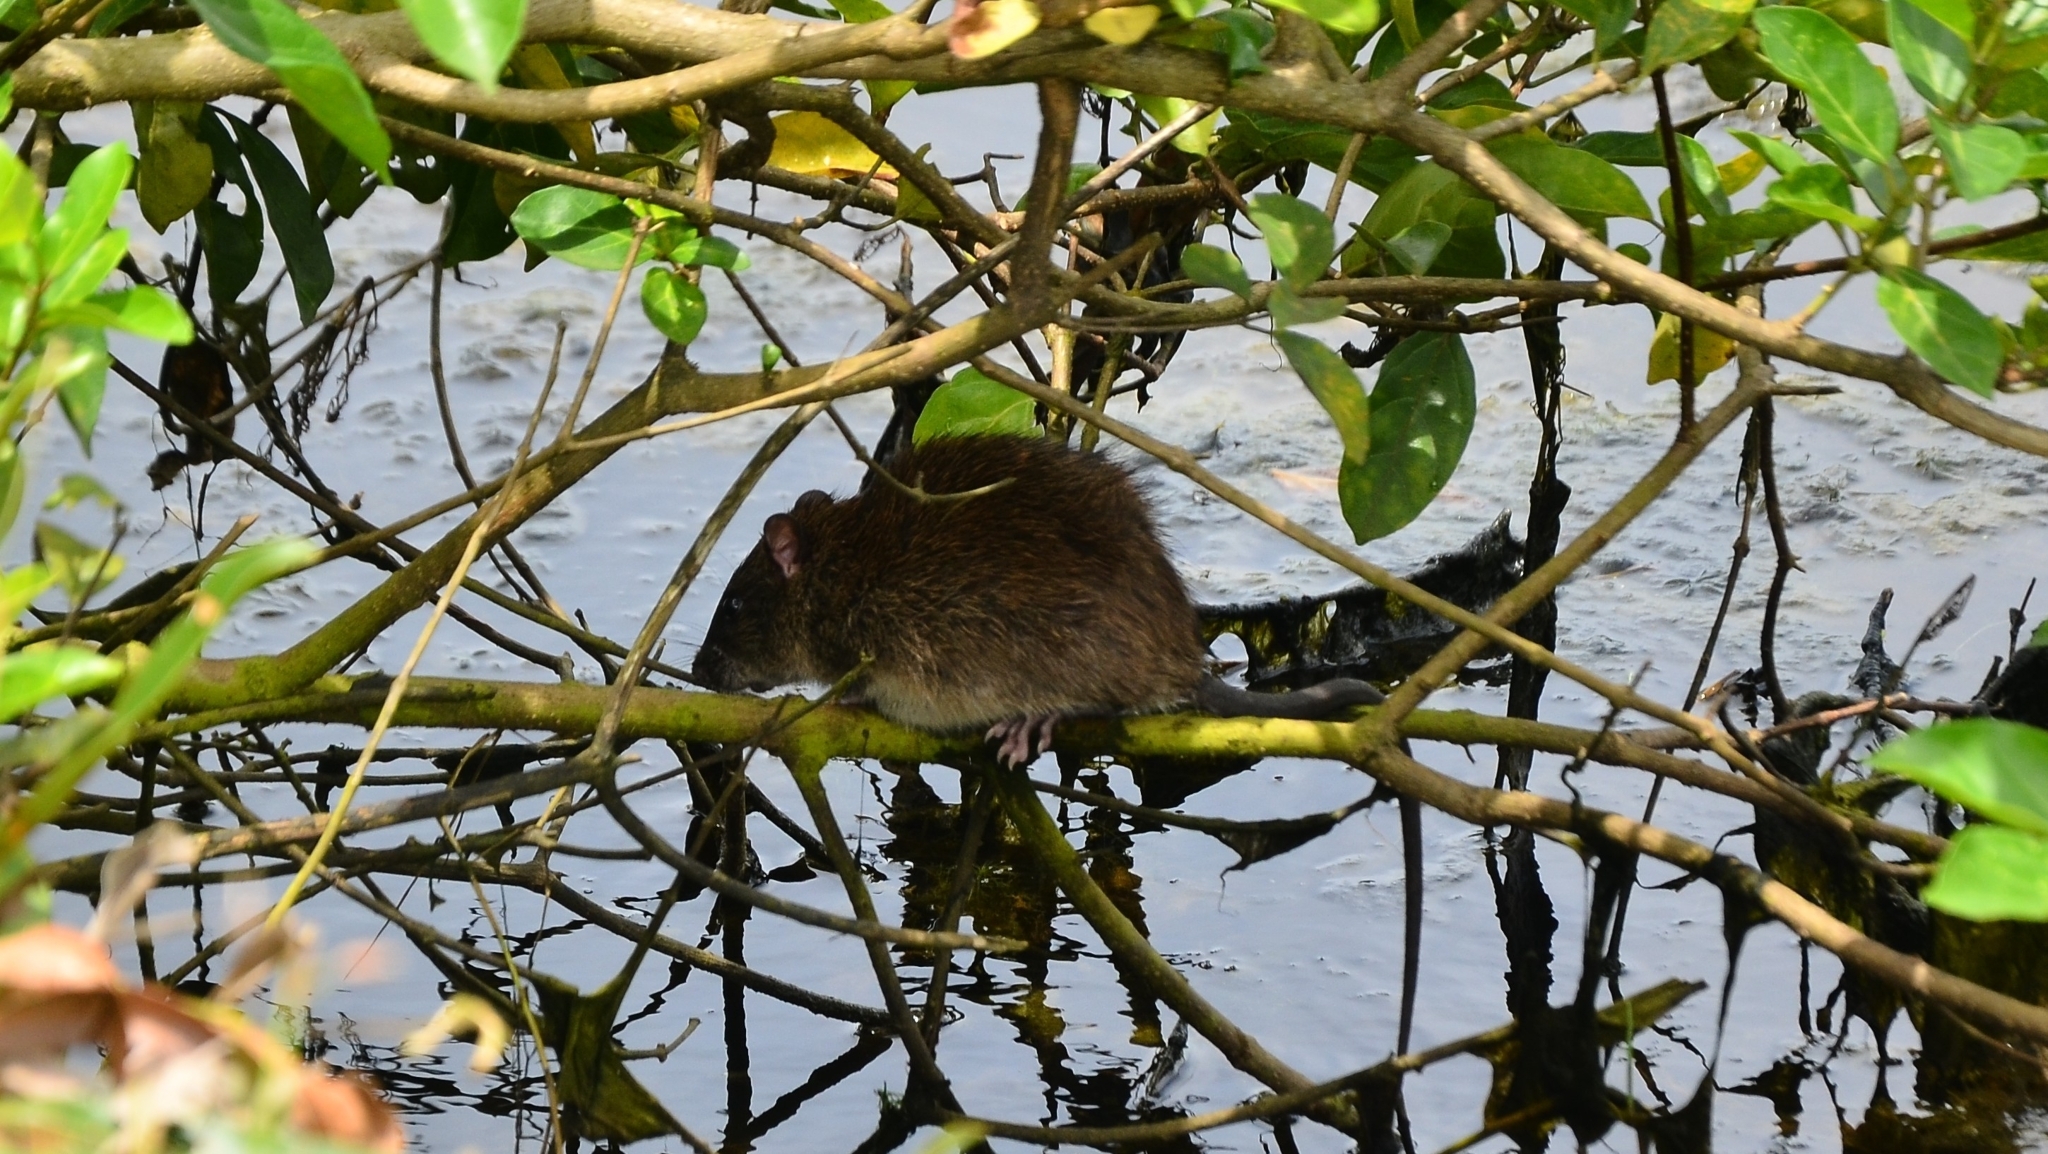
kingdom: Animalia
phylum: Chordata
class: Mammalia
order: Rodentia
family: Muridae
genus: Rattus
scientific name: Rattus norvegicus
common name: Brown rat
